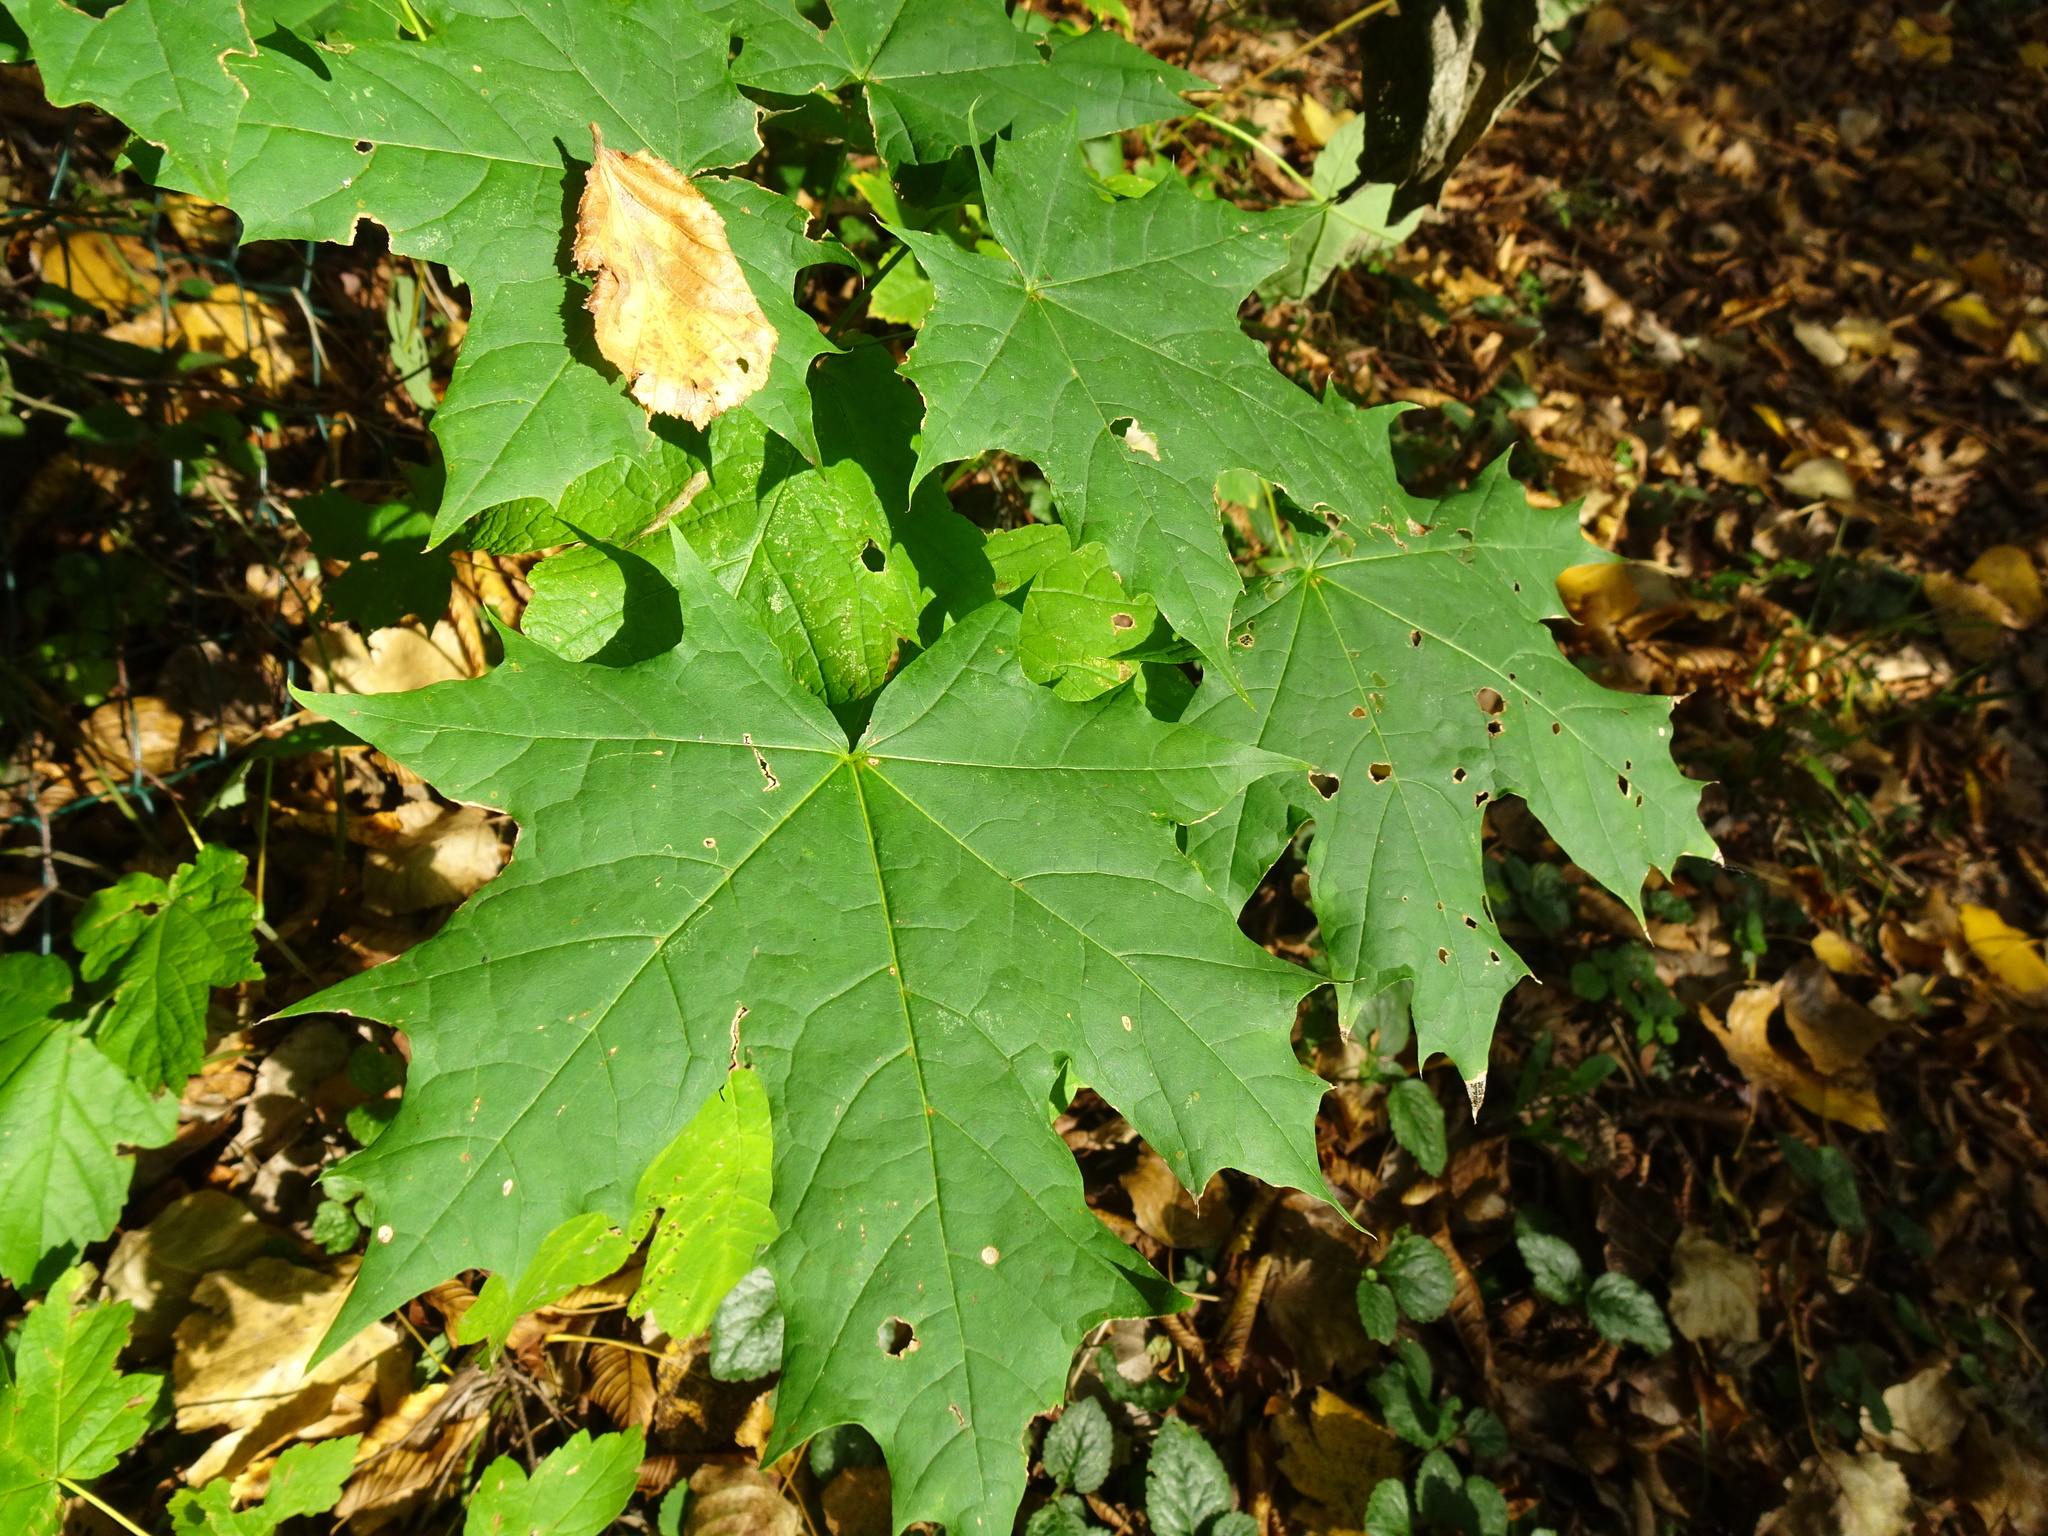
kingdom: Plantae
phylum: Tracheophyta
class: Magnoliopsida
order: Sapindales
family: Sapindaceae
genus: Acer
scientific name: Acer platanoides
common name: Norway maple
